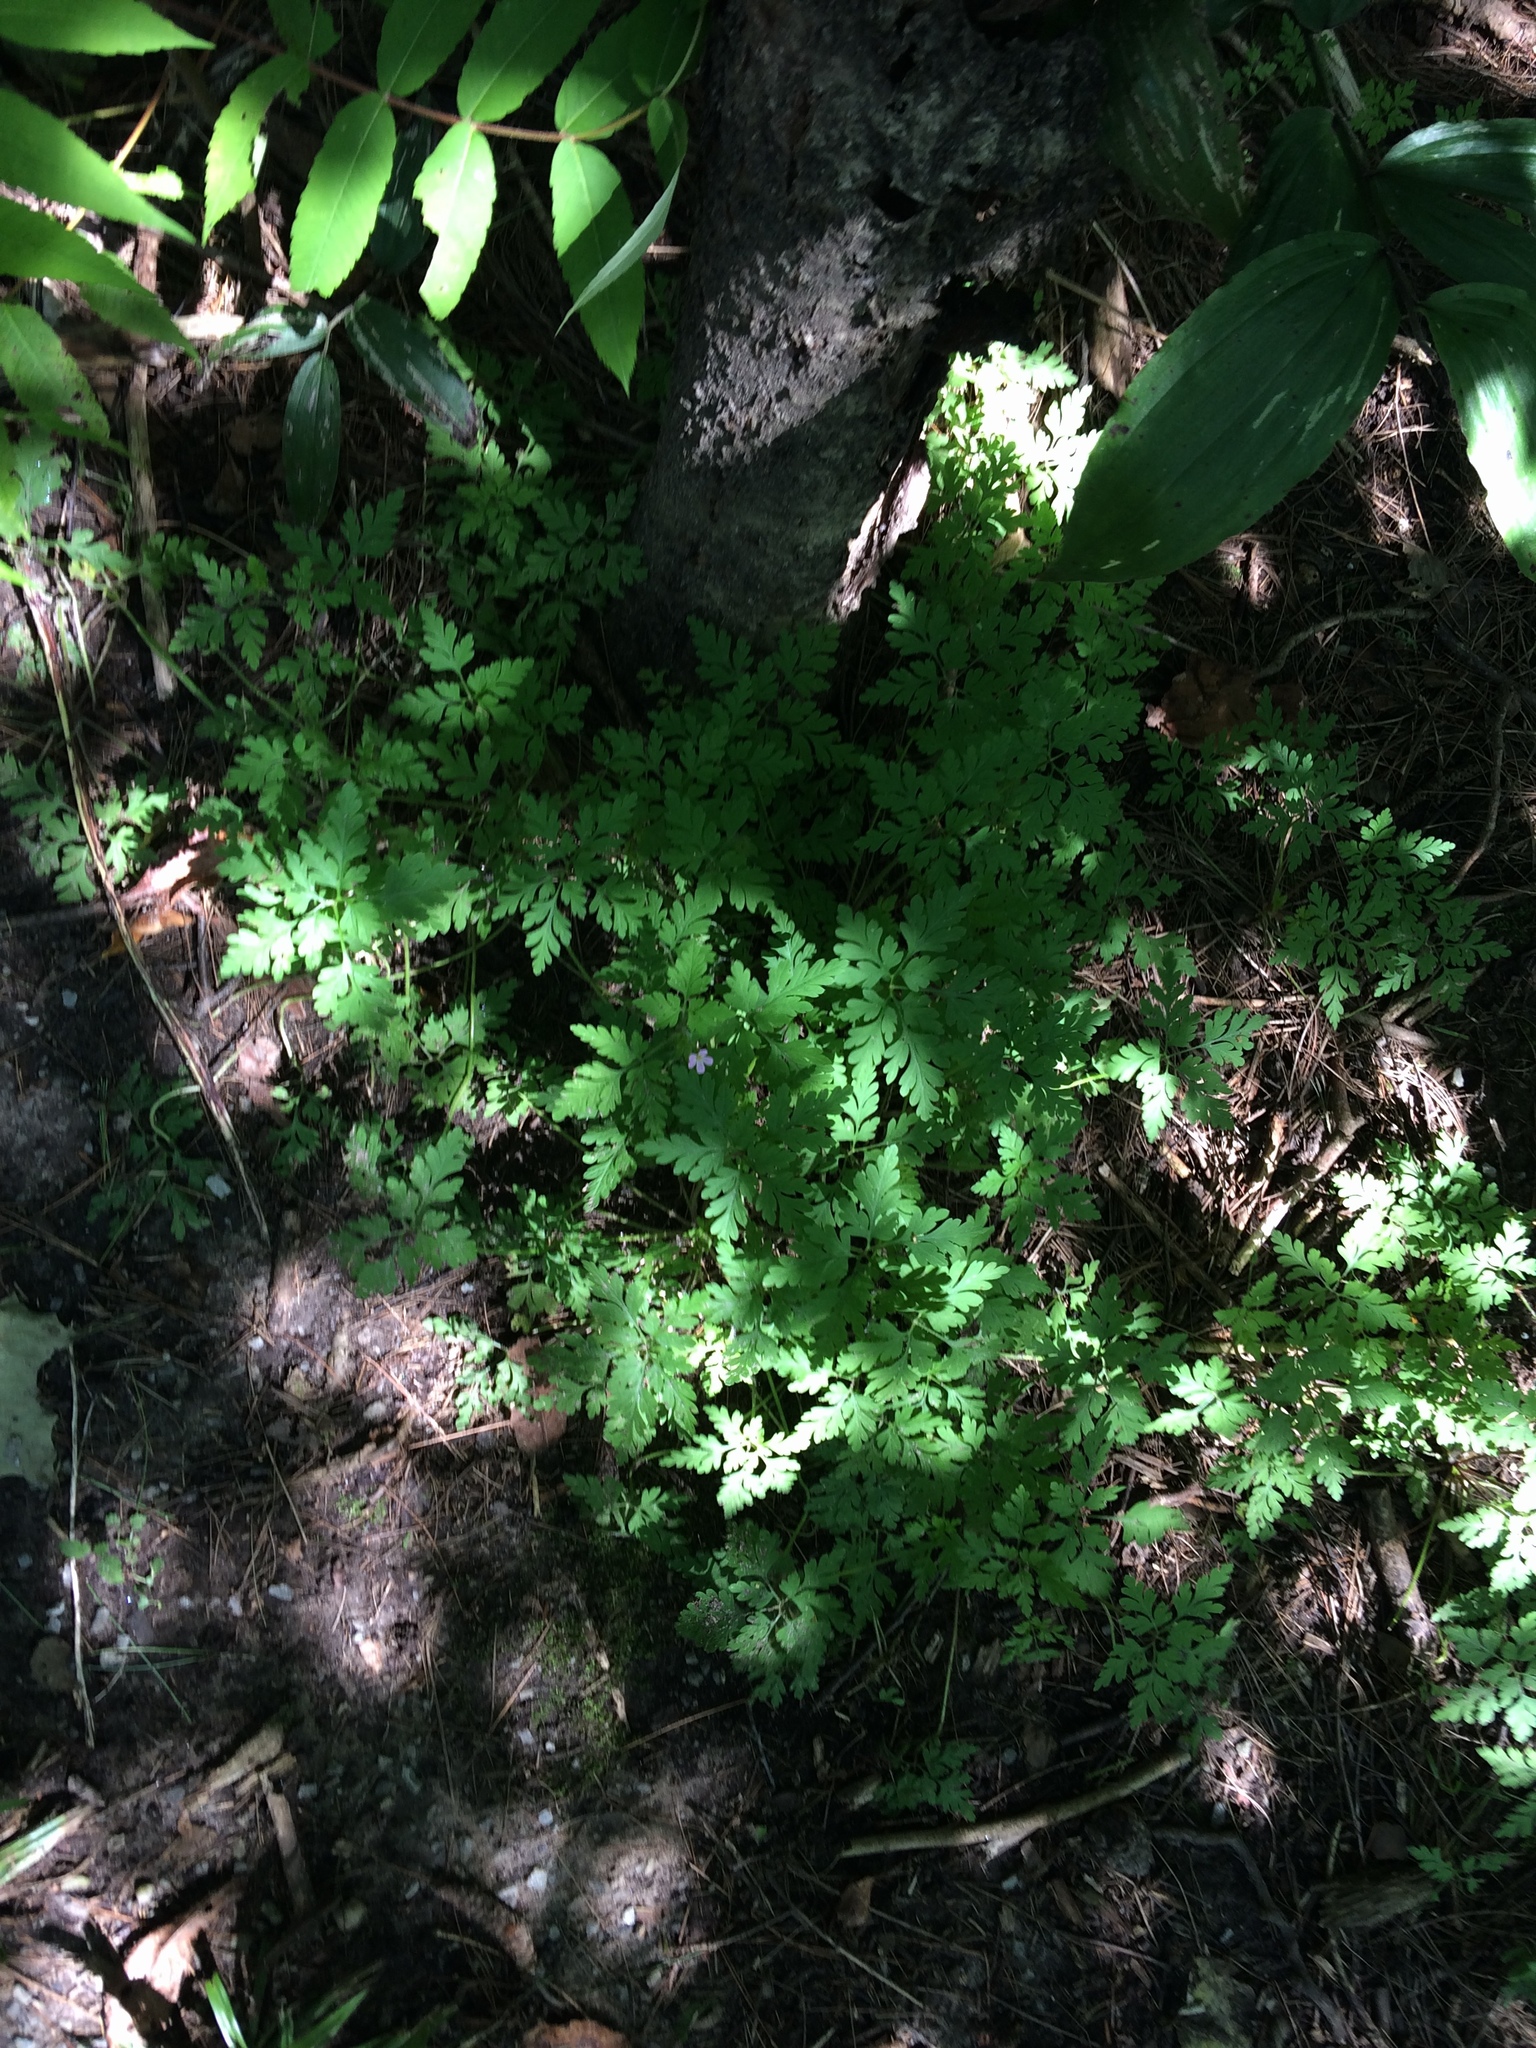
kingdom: Plantae
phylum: Tracheophyta
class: Magnoliopsida
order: Geraniales
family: Geraniaceae
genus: Geranium
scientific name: Geranium robertianum
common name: Herb-robert
